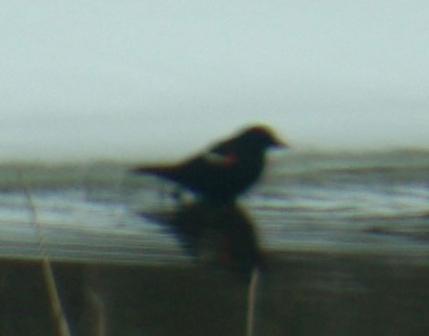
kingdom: Animalia
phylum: Chordata
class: Aves
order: Passeriformes
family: Icteridae
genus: Agelaius
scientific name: Agelaius phoeniceus
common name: Red-winged blackbird
